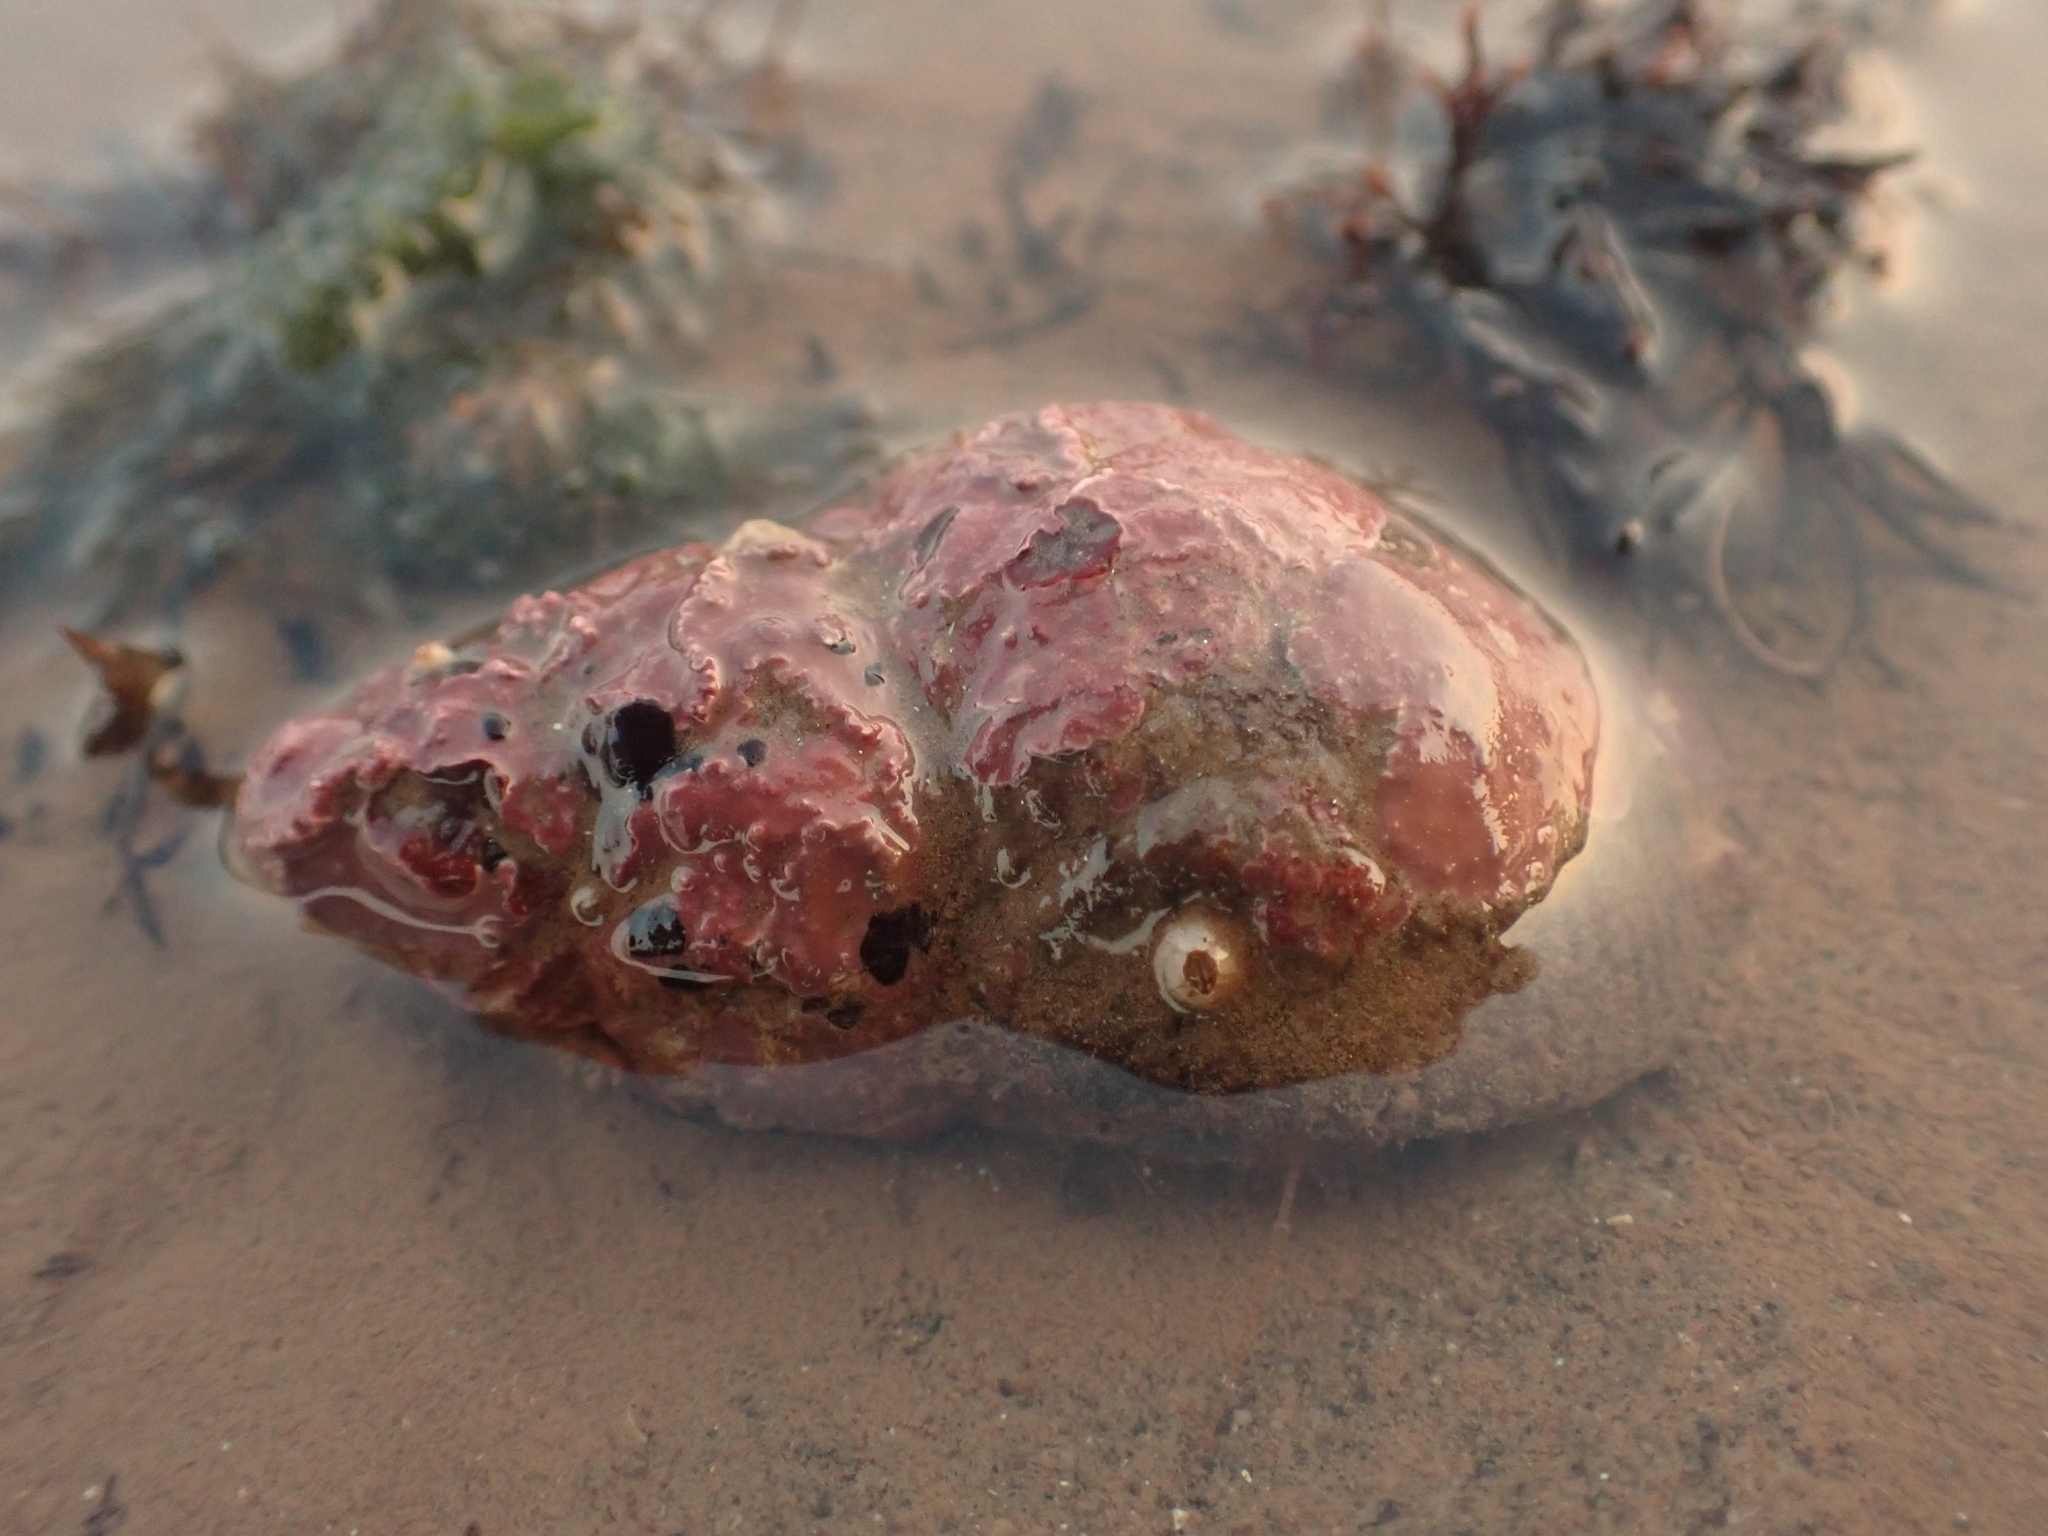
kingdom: Animalia
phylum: Mollusca
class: Gastropoda
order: Neogastropoda
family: Buccinidae
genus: Buccinum
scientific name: Buccinum undatum
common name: Common whelk
